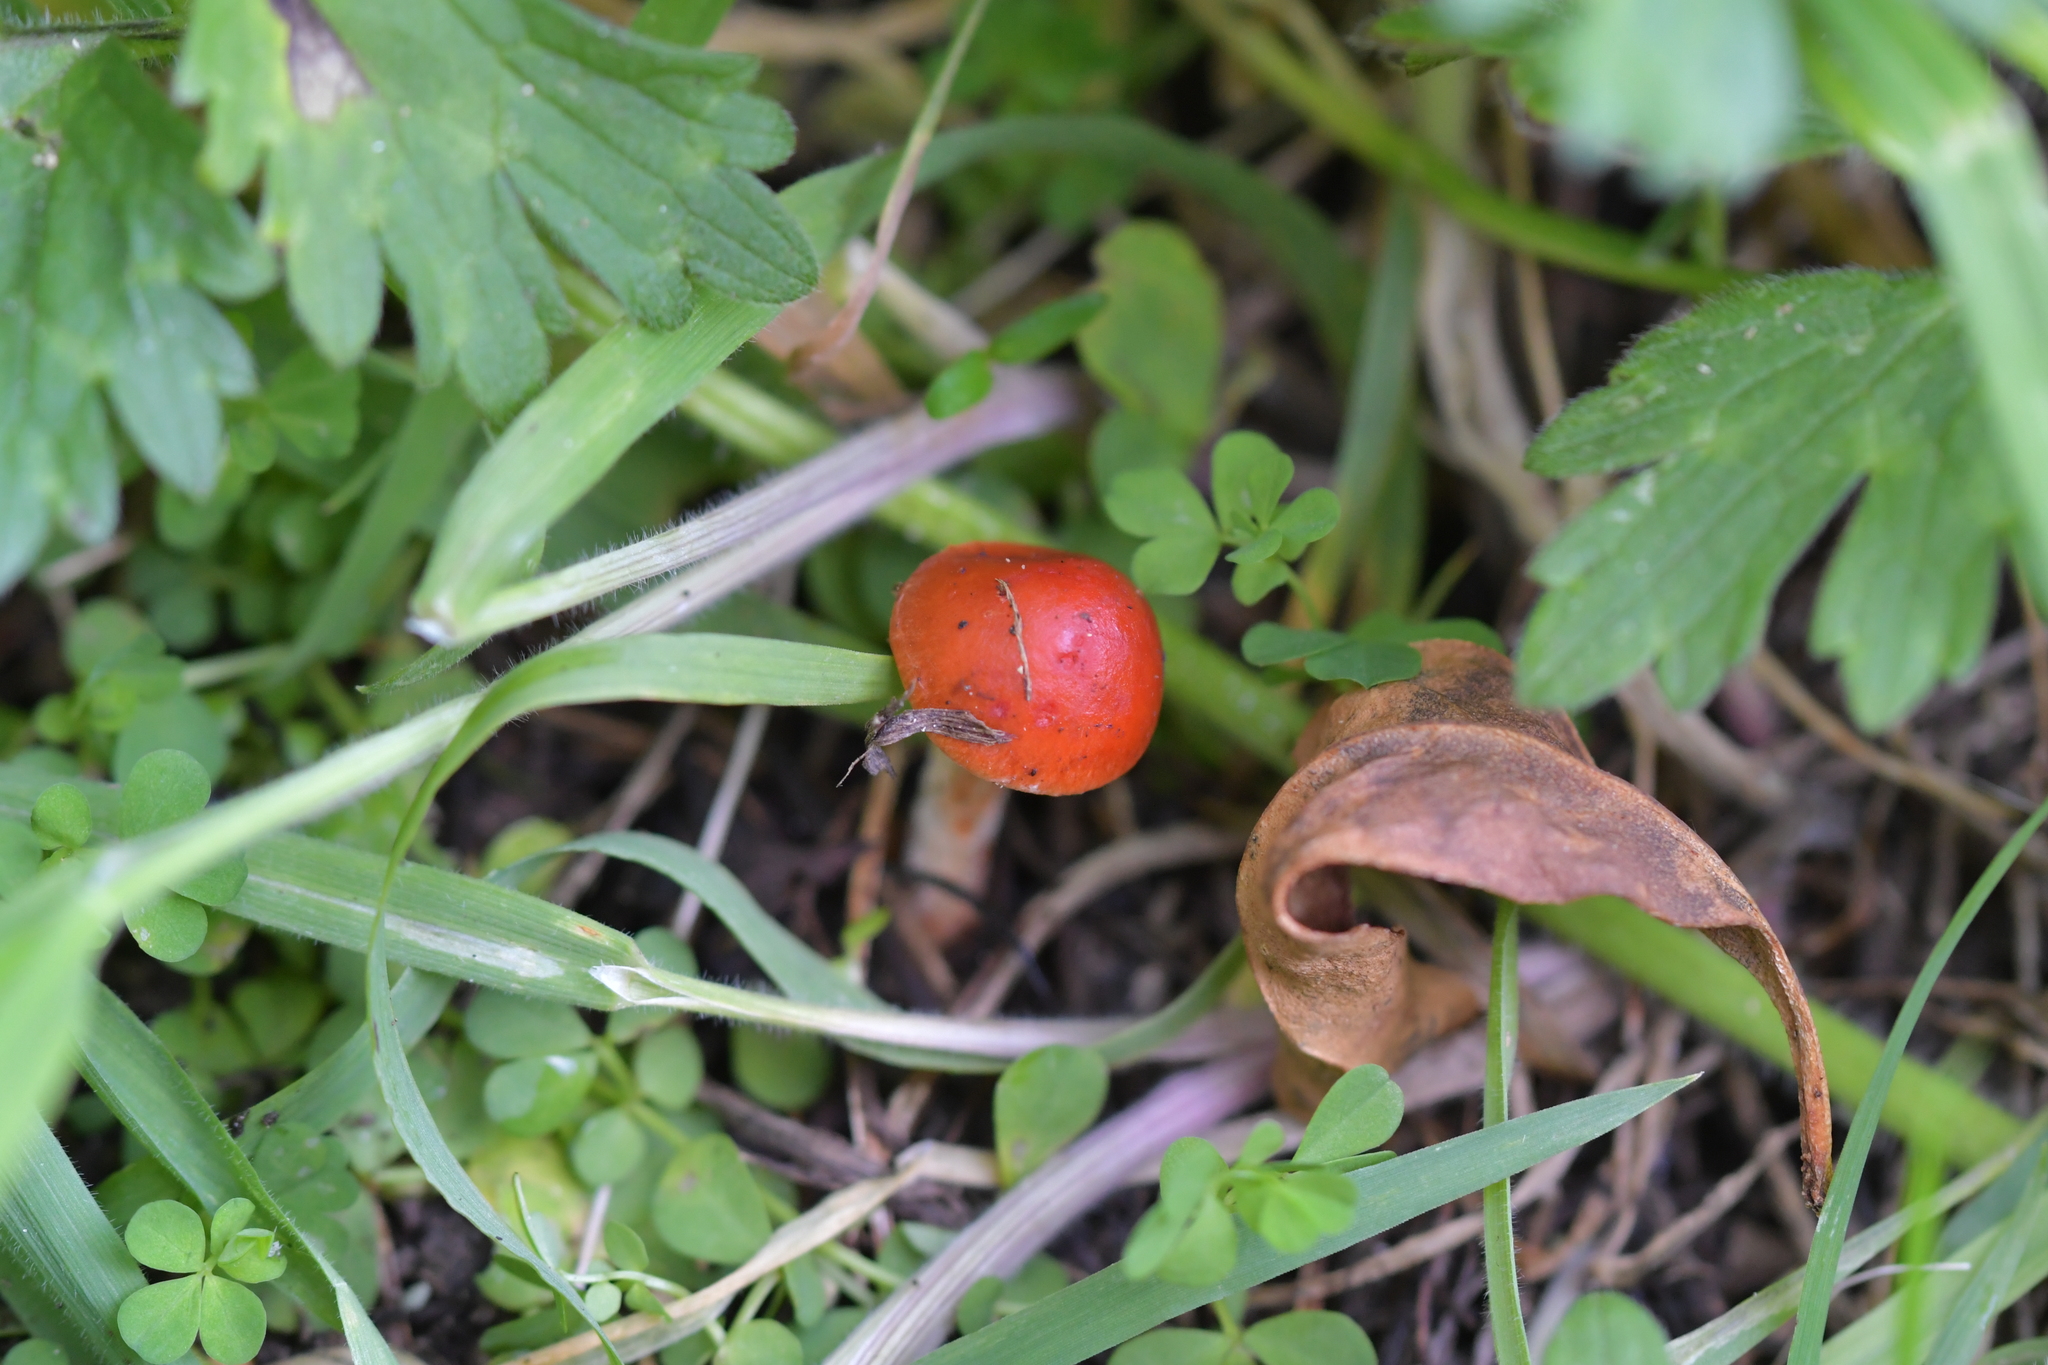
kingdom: Fungi
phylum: Basidiomycota
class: Agaricomycetes
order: Agaricales
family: Strophariaceae
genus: Leratiomyces
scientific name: Leratiomyces ceres
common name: Redlead roundhead
